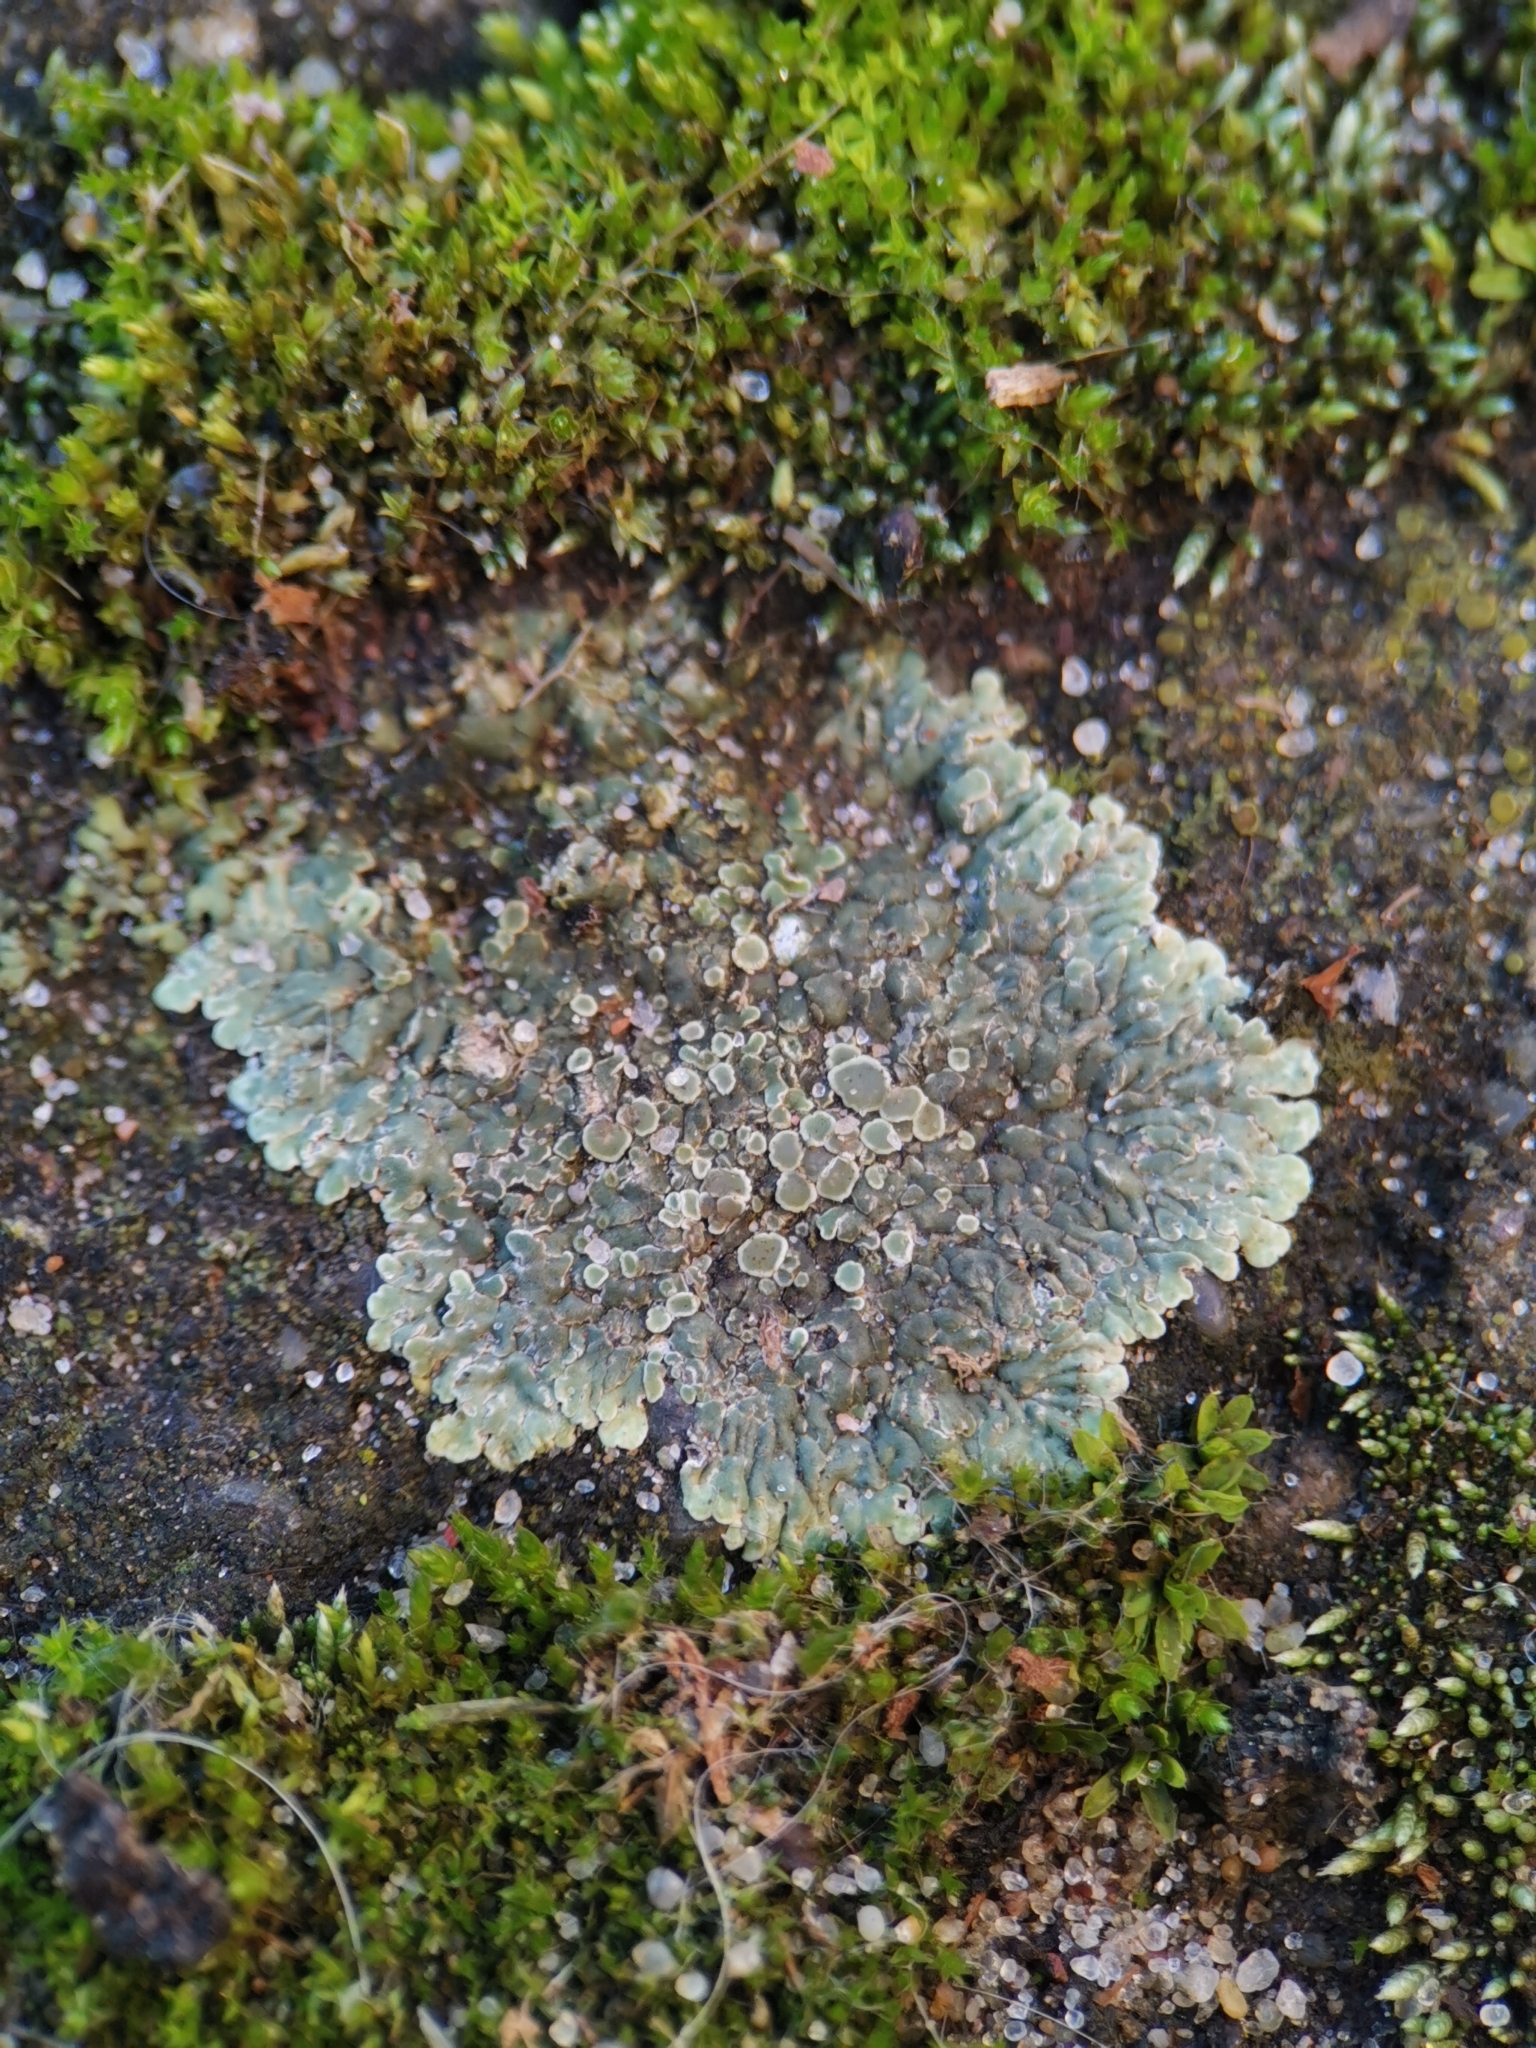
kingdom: Fungi
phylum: Ascomycota
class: Lecanoromycetes
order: Lecanorales
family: Lecanoraceae
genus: Protoparmeliopsis
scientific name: Protoparmeliopsis muralis
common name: Stonewall rim lichen
